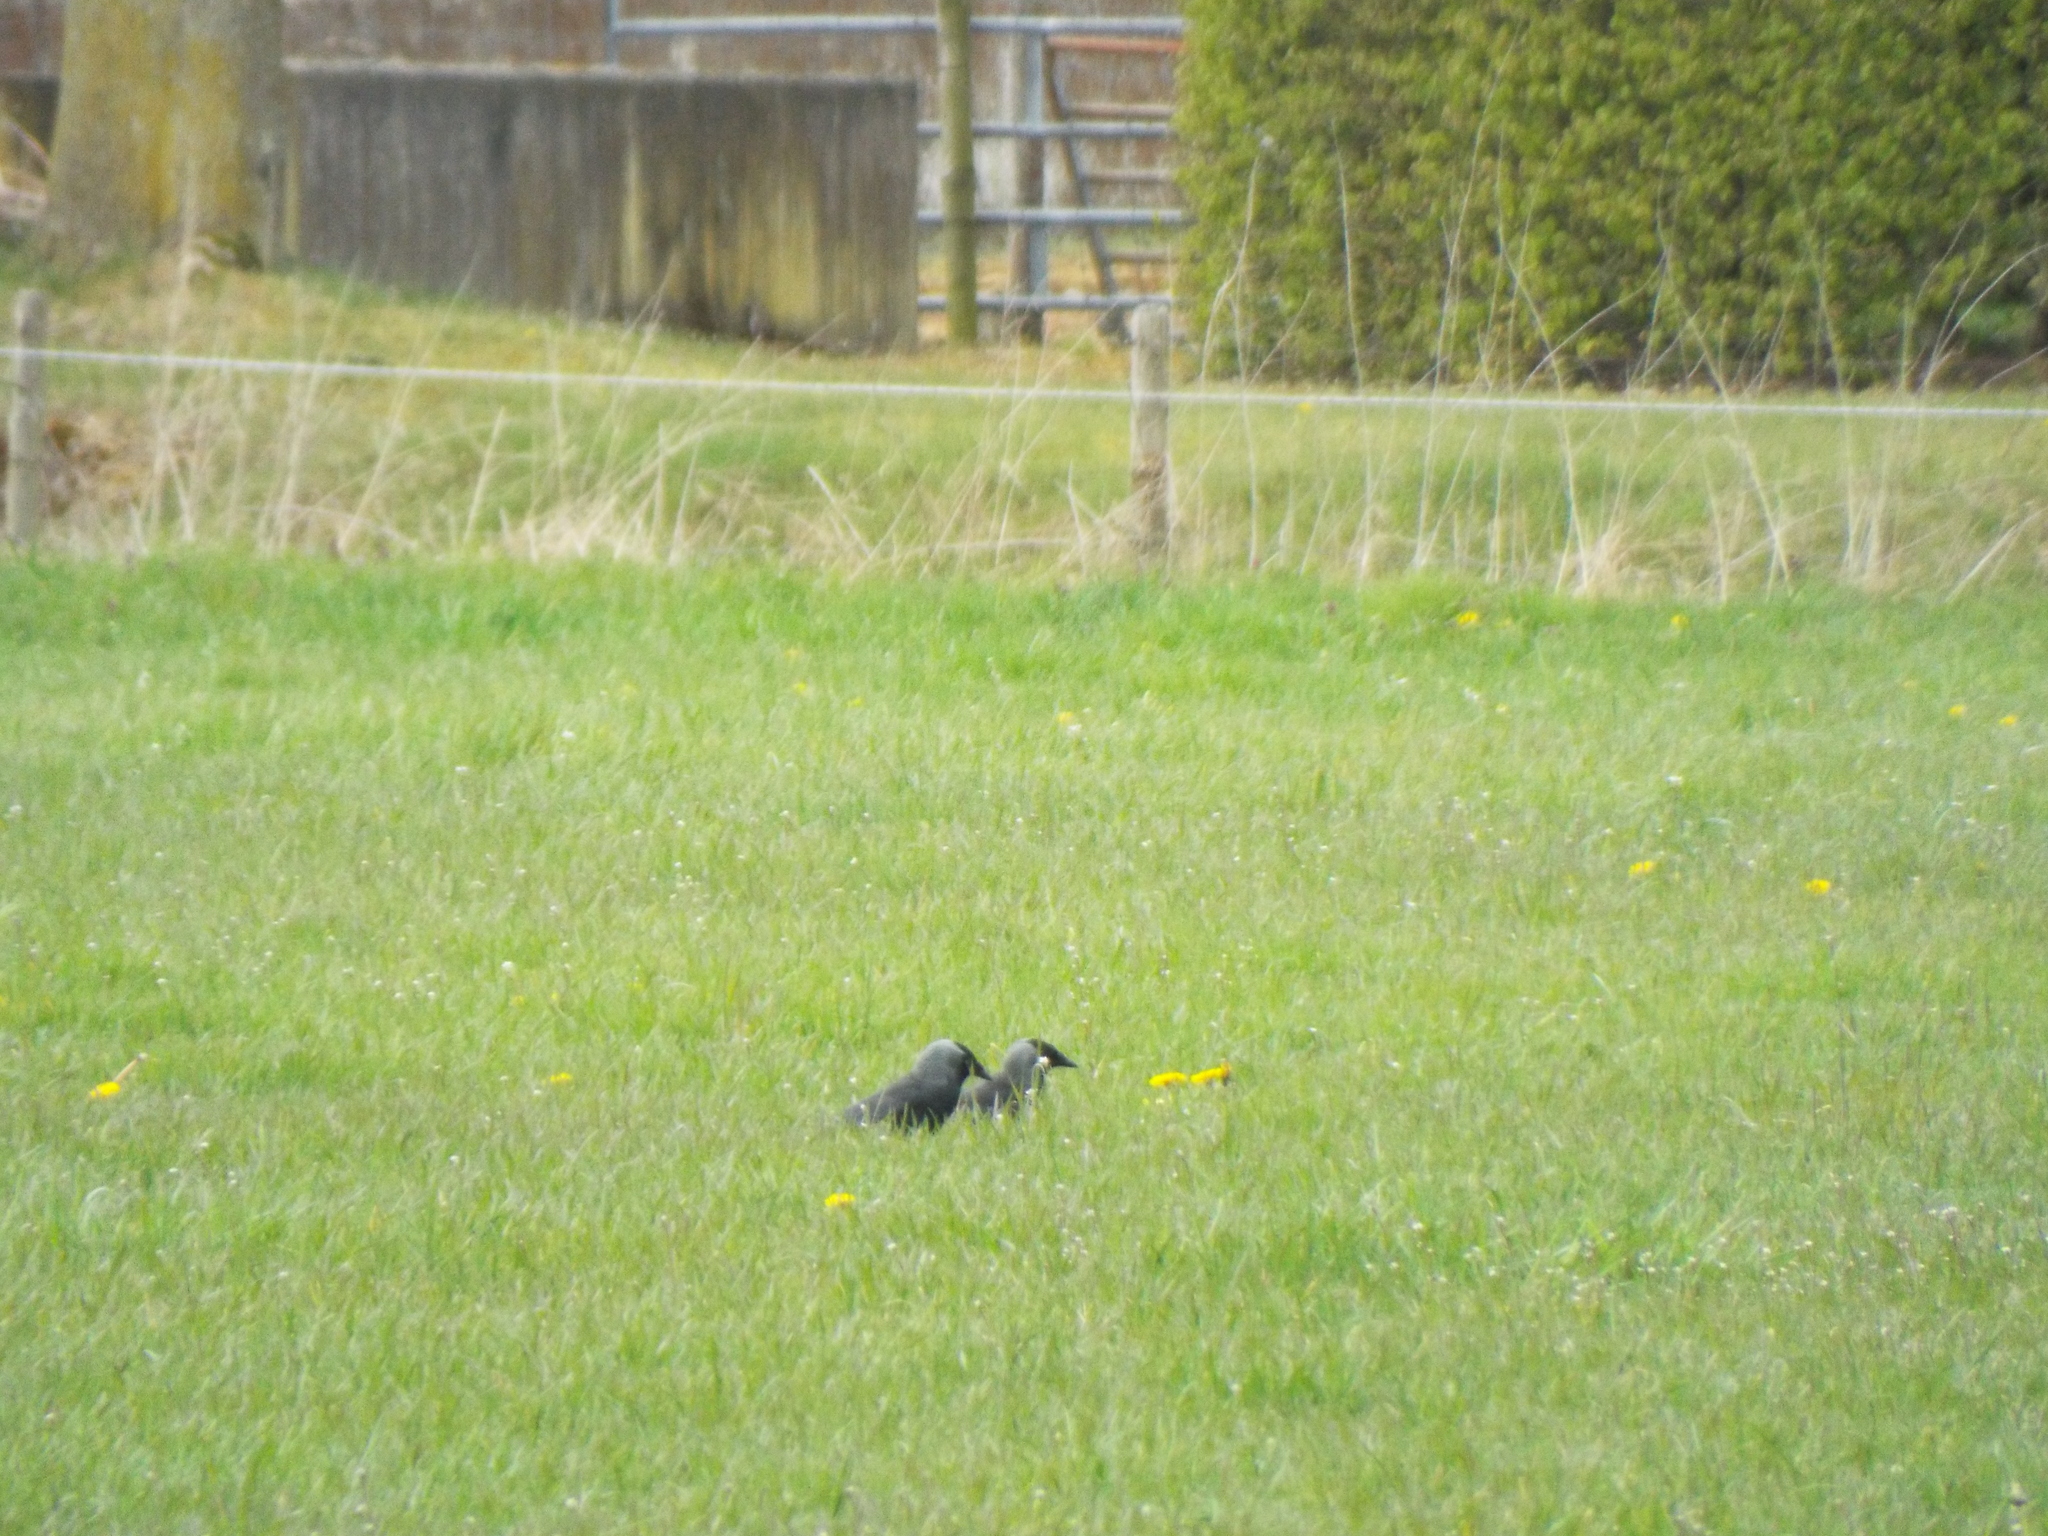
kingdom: Animalia
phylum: Chordata
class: Aves
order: Passeriformes
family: Corvidae
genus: Coloeus
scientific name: Coloeus monedula
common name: Western jackdaw
